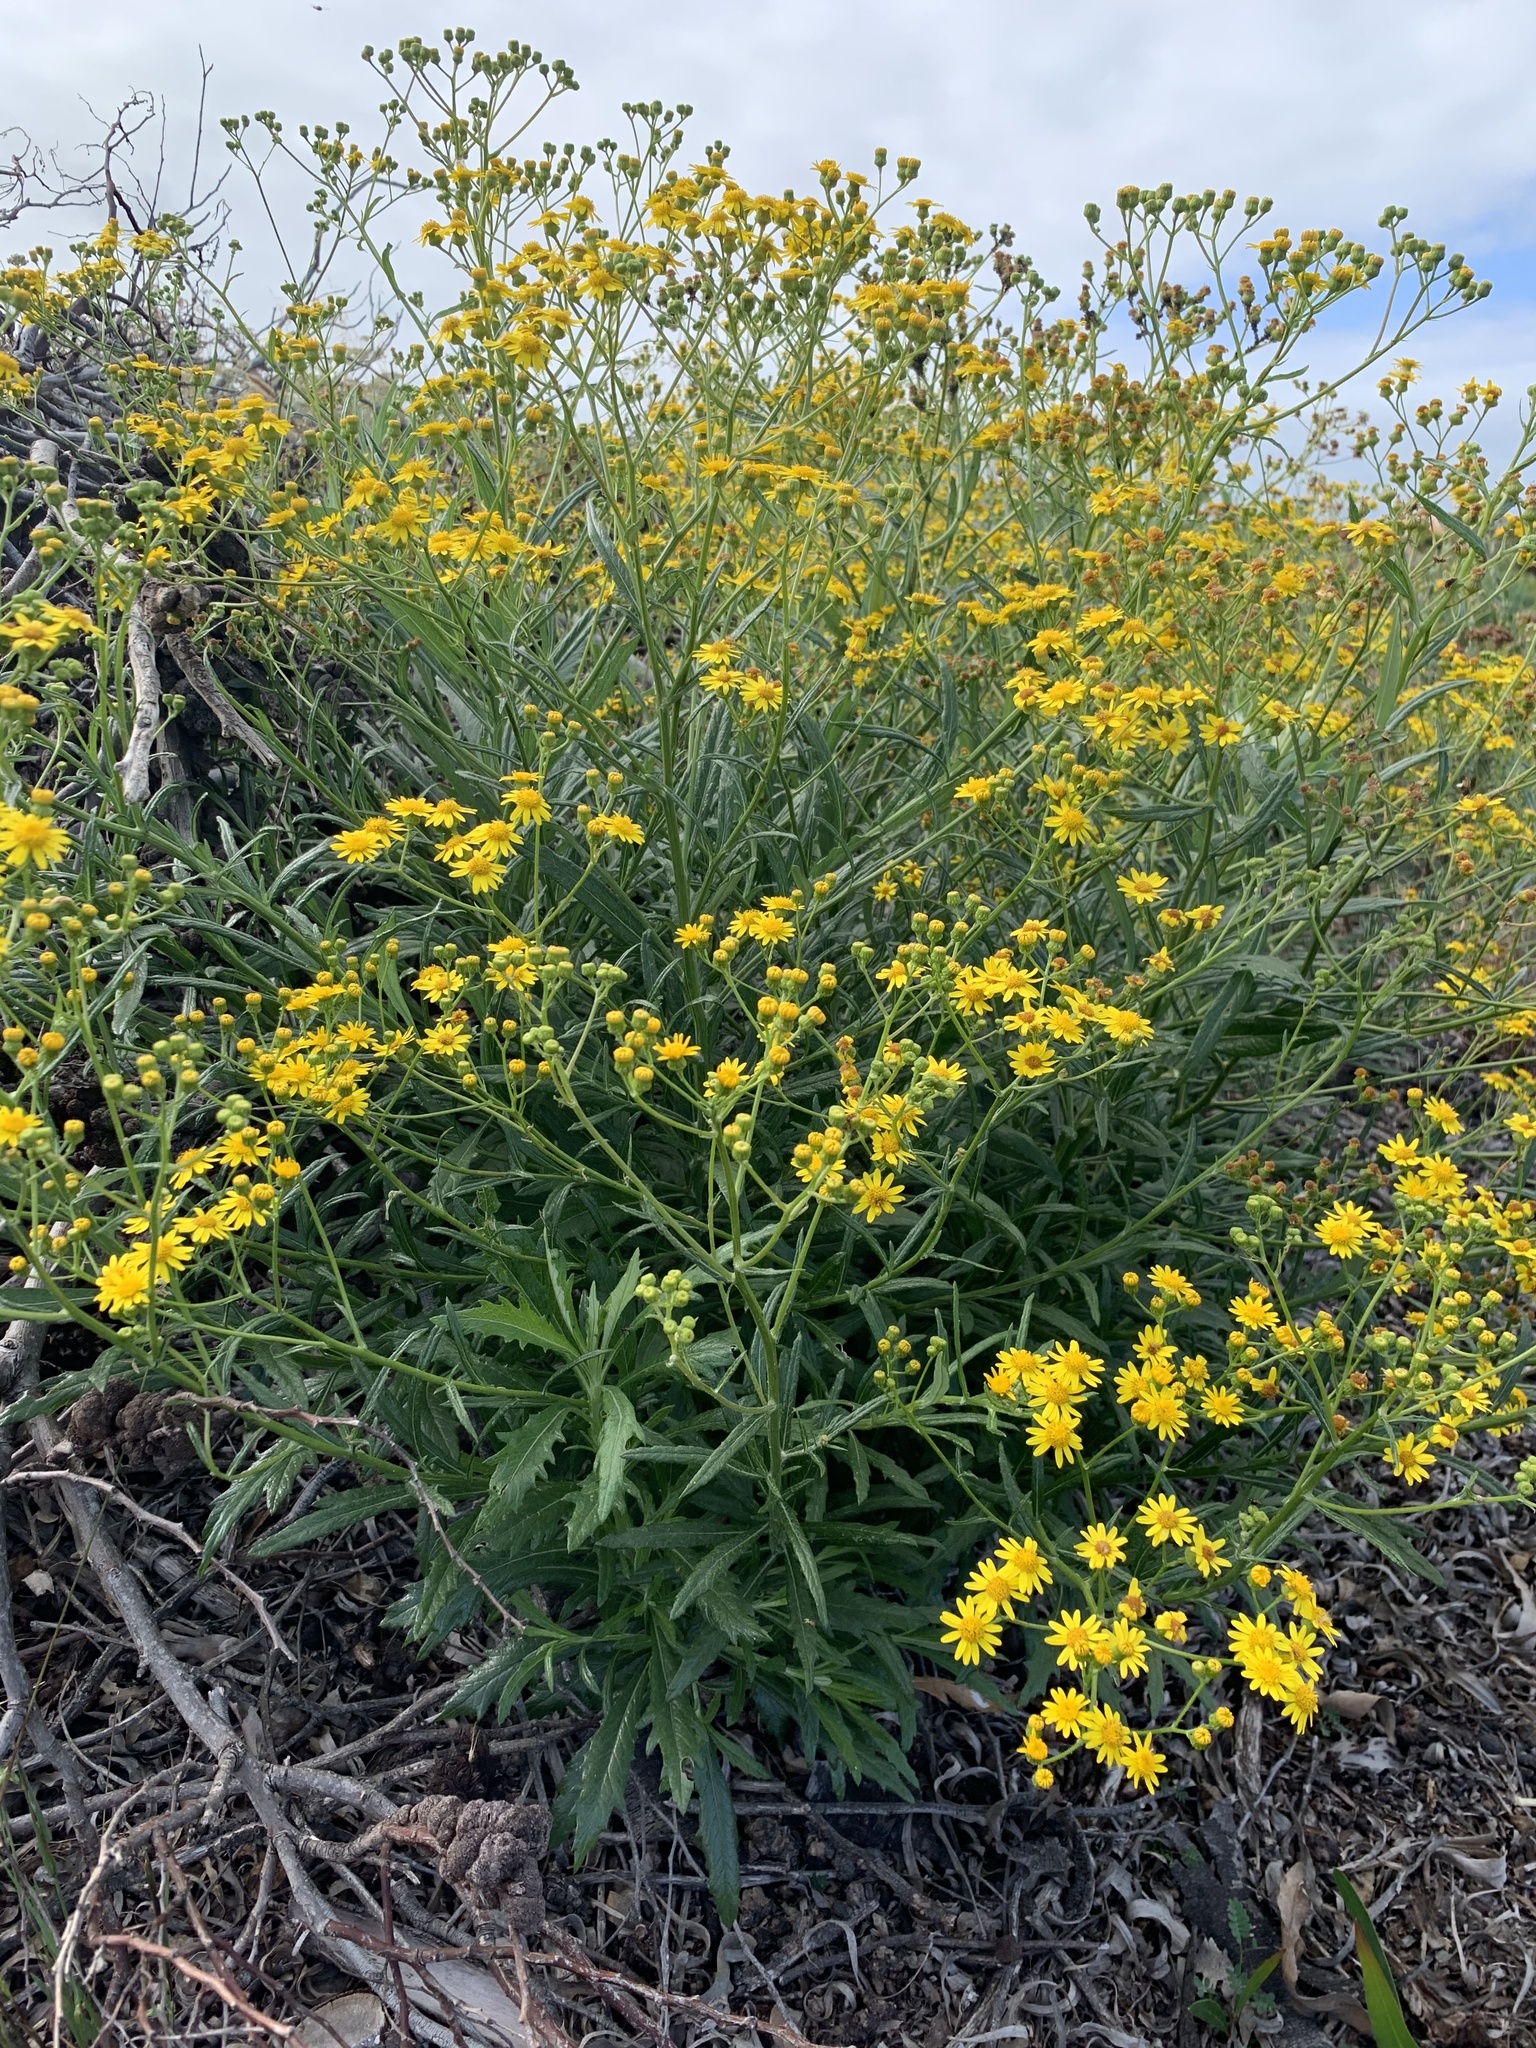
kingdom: Plantae
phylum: Tracheophyta
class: Magnoliopsida
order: Asterales
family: Asteraceae
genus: Senecio
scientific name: Senecio pterophorus
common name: Shoddy ragwort
